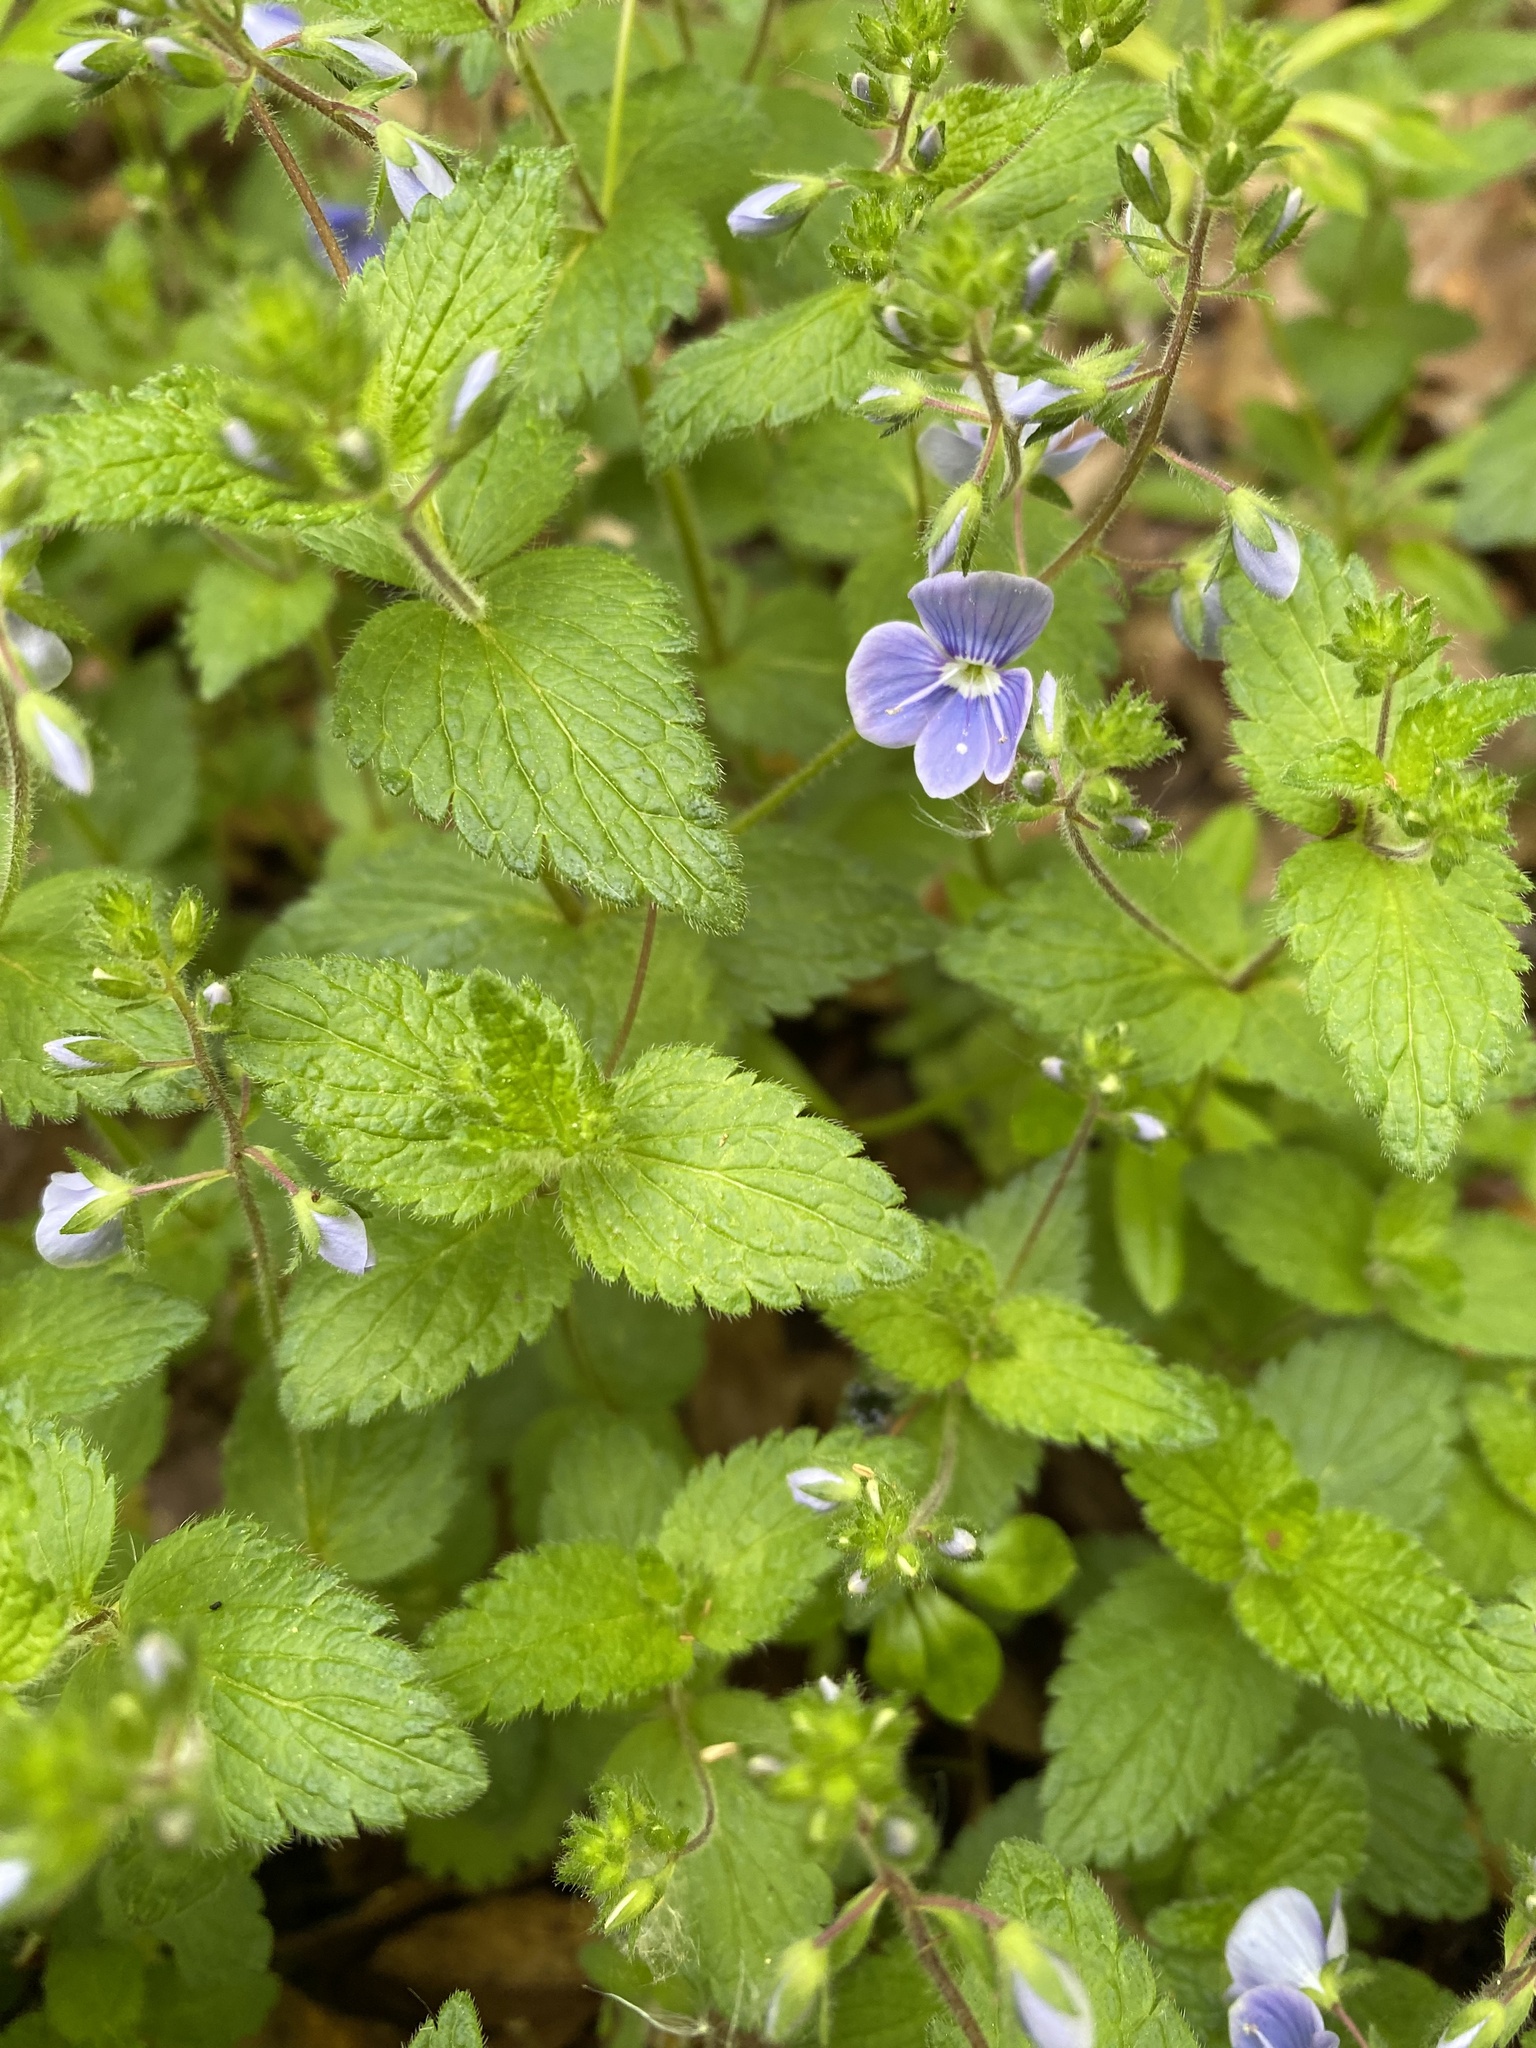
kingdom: Plantae
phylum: Tracheophyta
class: Magnoliopsida
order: Lamiales
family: Plantaginaceae
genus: Veronica
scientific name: Veronica chamaedrys
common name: Germander speedwell
